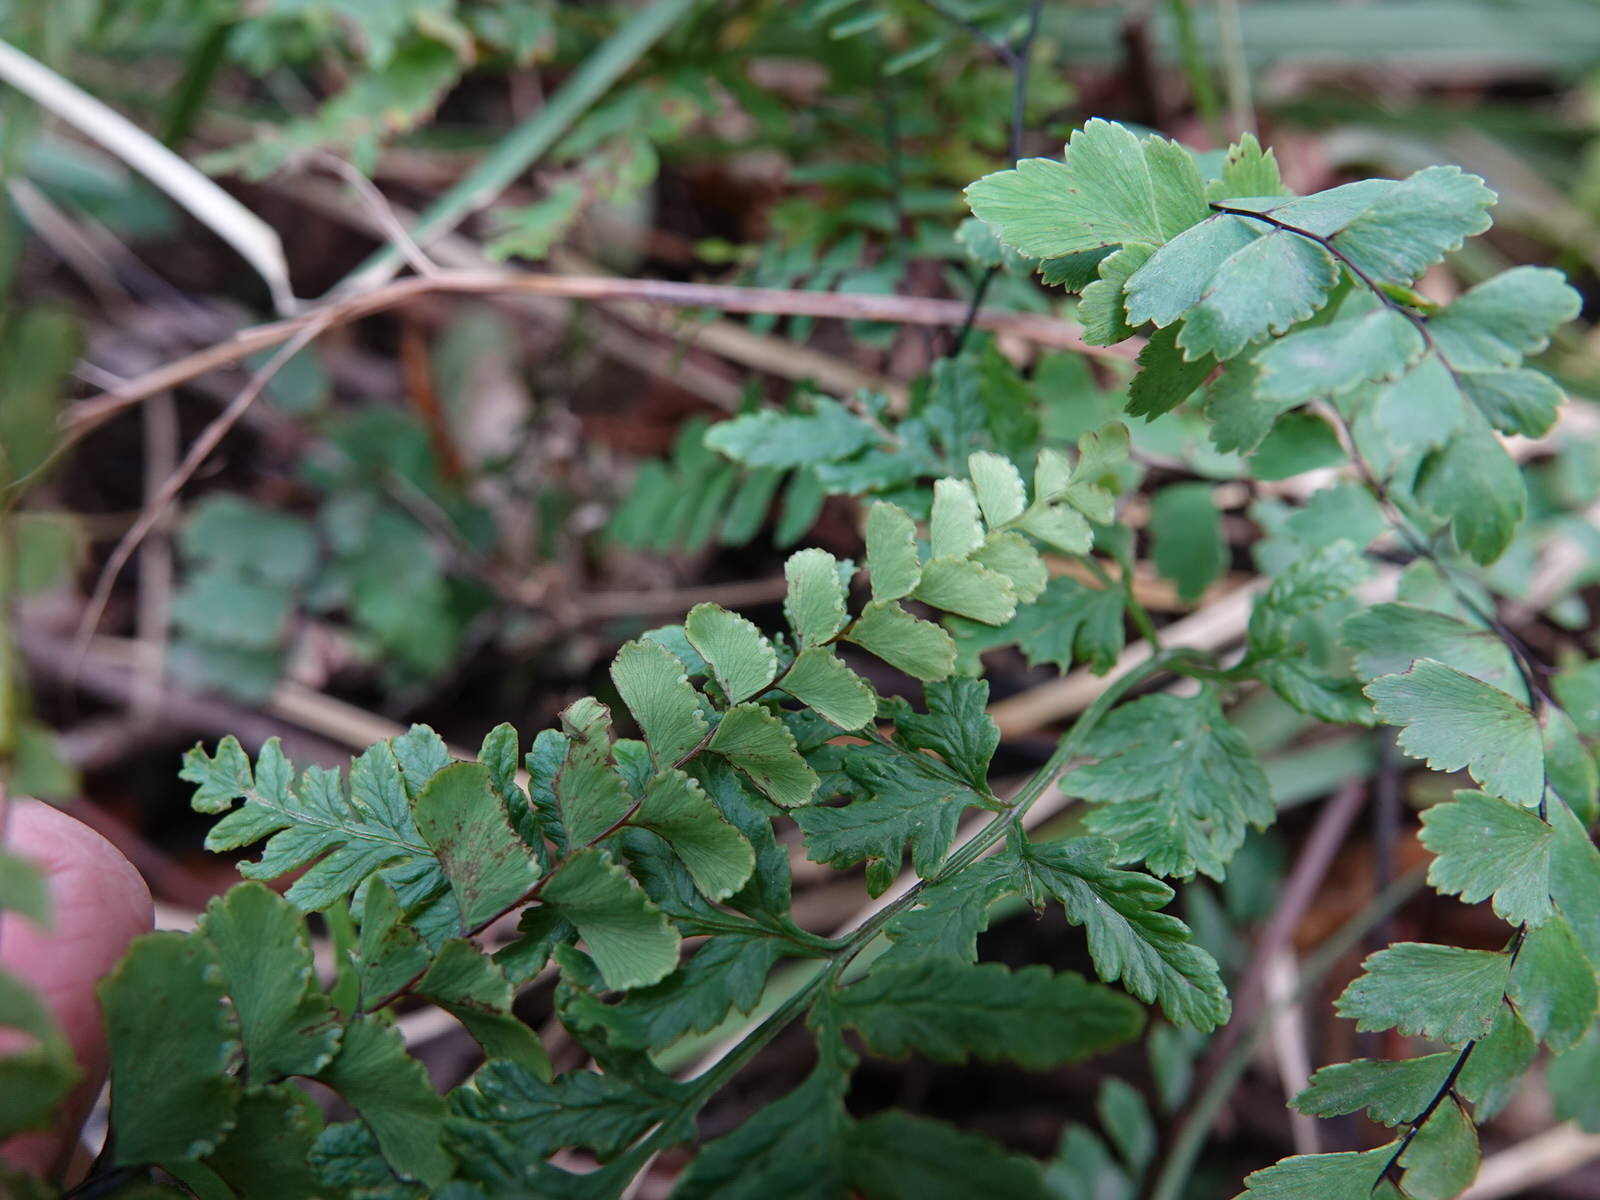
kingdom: Plantae
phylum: Tracheophyta
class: Polypodiopsida
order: Polypodiales
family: Pteridaceae
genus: Adiantum
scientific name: Adiantum cunninghamii
